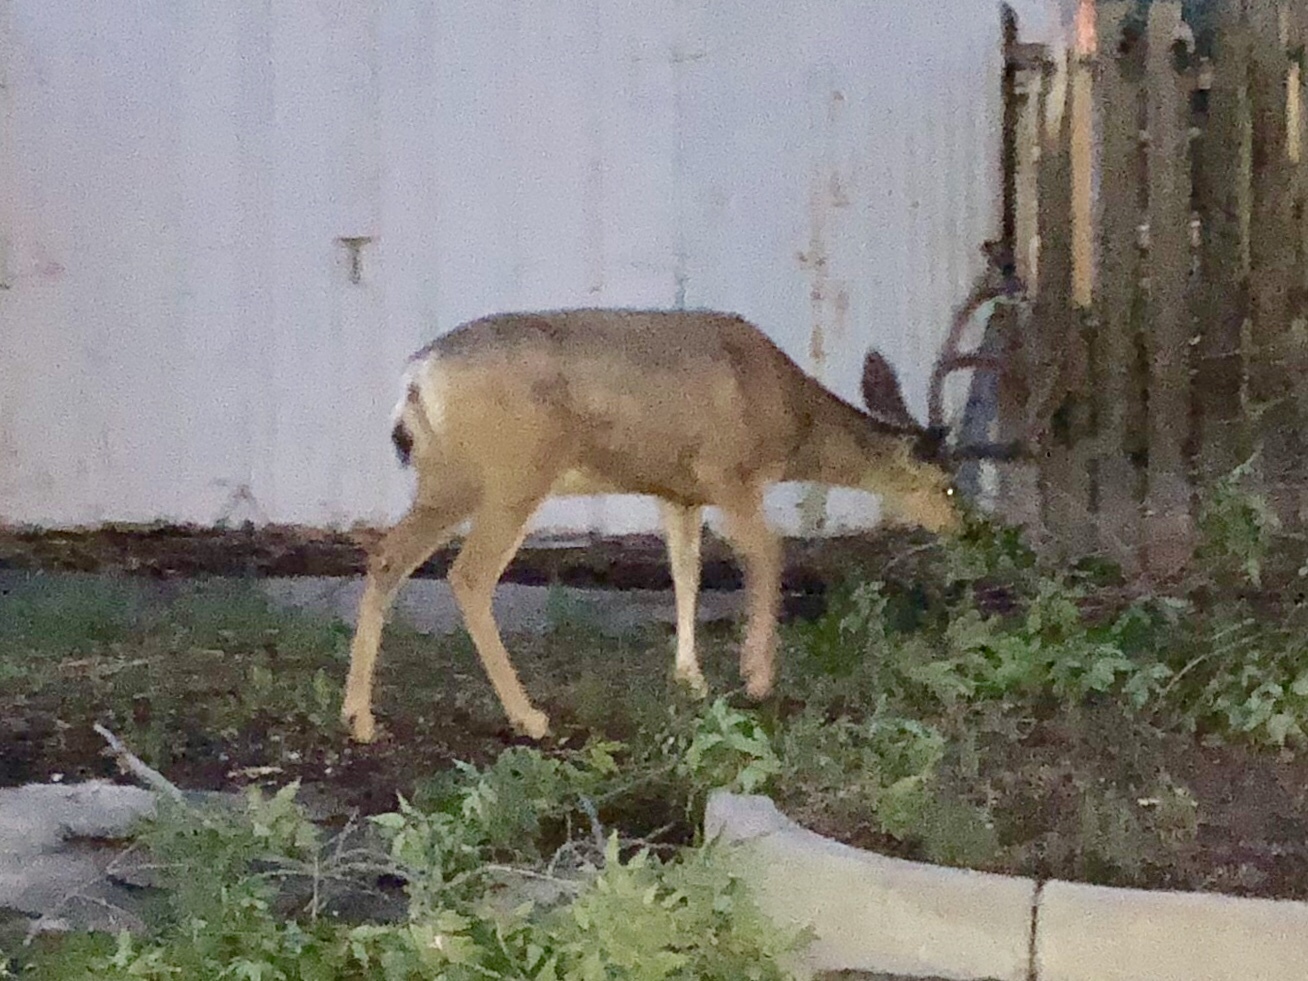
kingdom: Animalia
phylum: Chordata
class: Mammalia
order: Artiodactyla
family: Cervidae
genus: Odocoileus
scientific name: Odocoileus hemionus
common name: Mule deer
